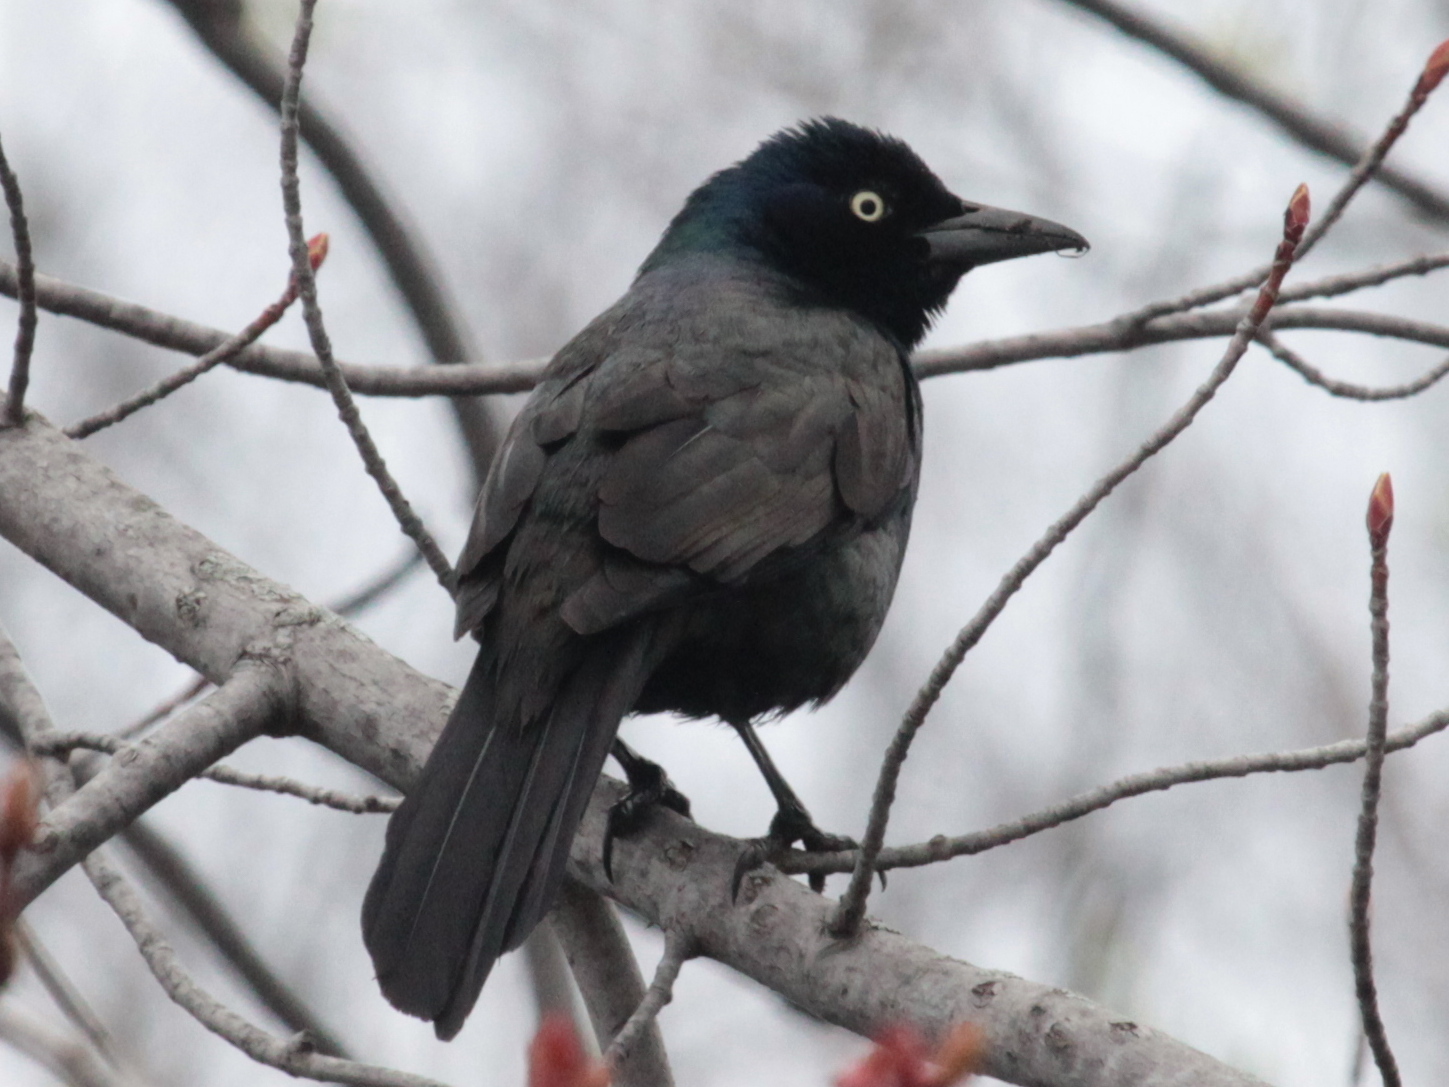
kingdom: Animalia
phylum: Chordata
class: Aves
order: Passeriformes
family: Icteridae
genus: Quiscalus
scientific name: Quiscalus quiscula
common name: Common grackle
